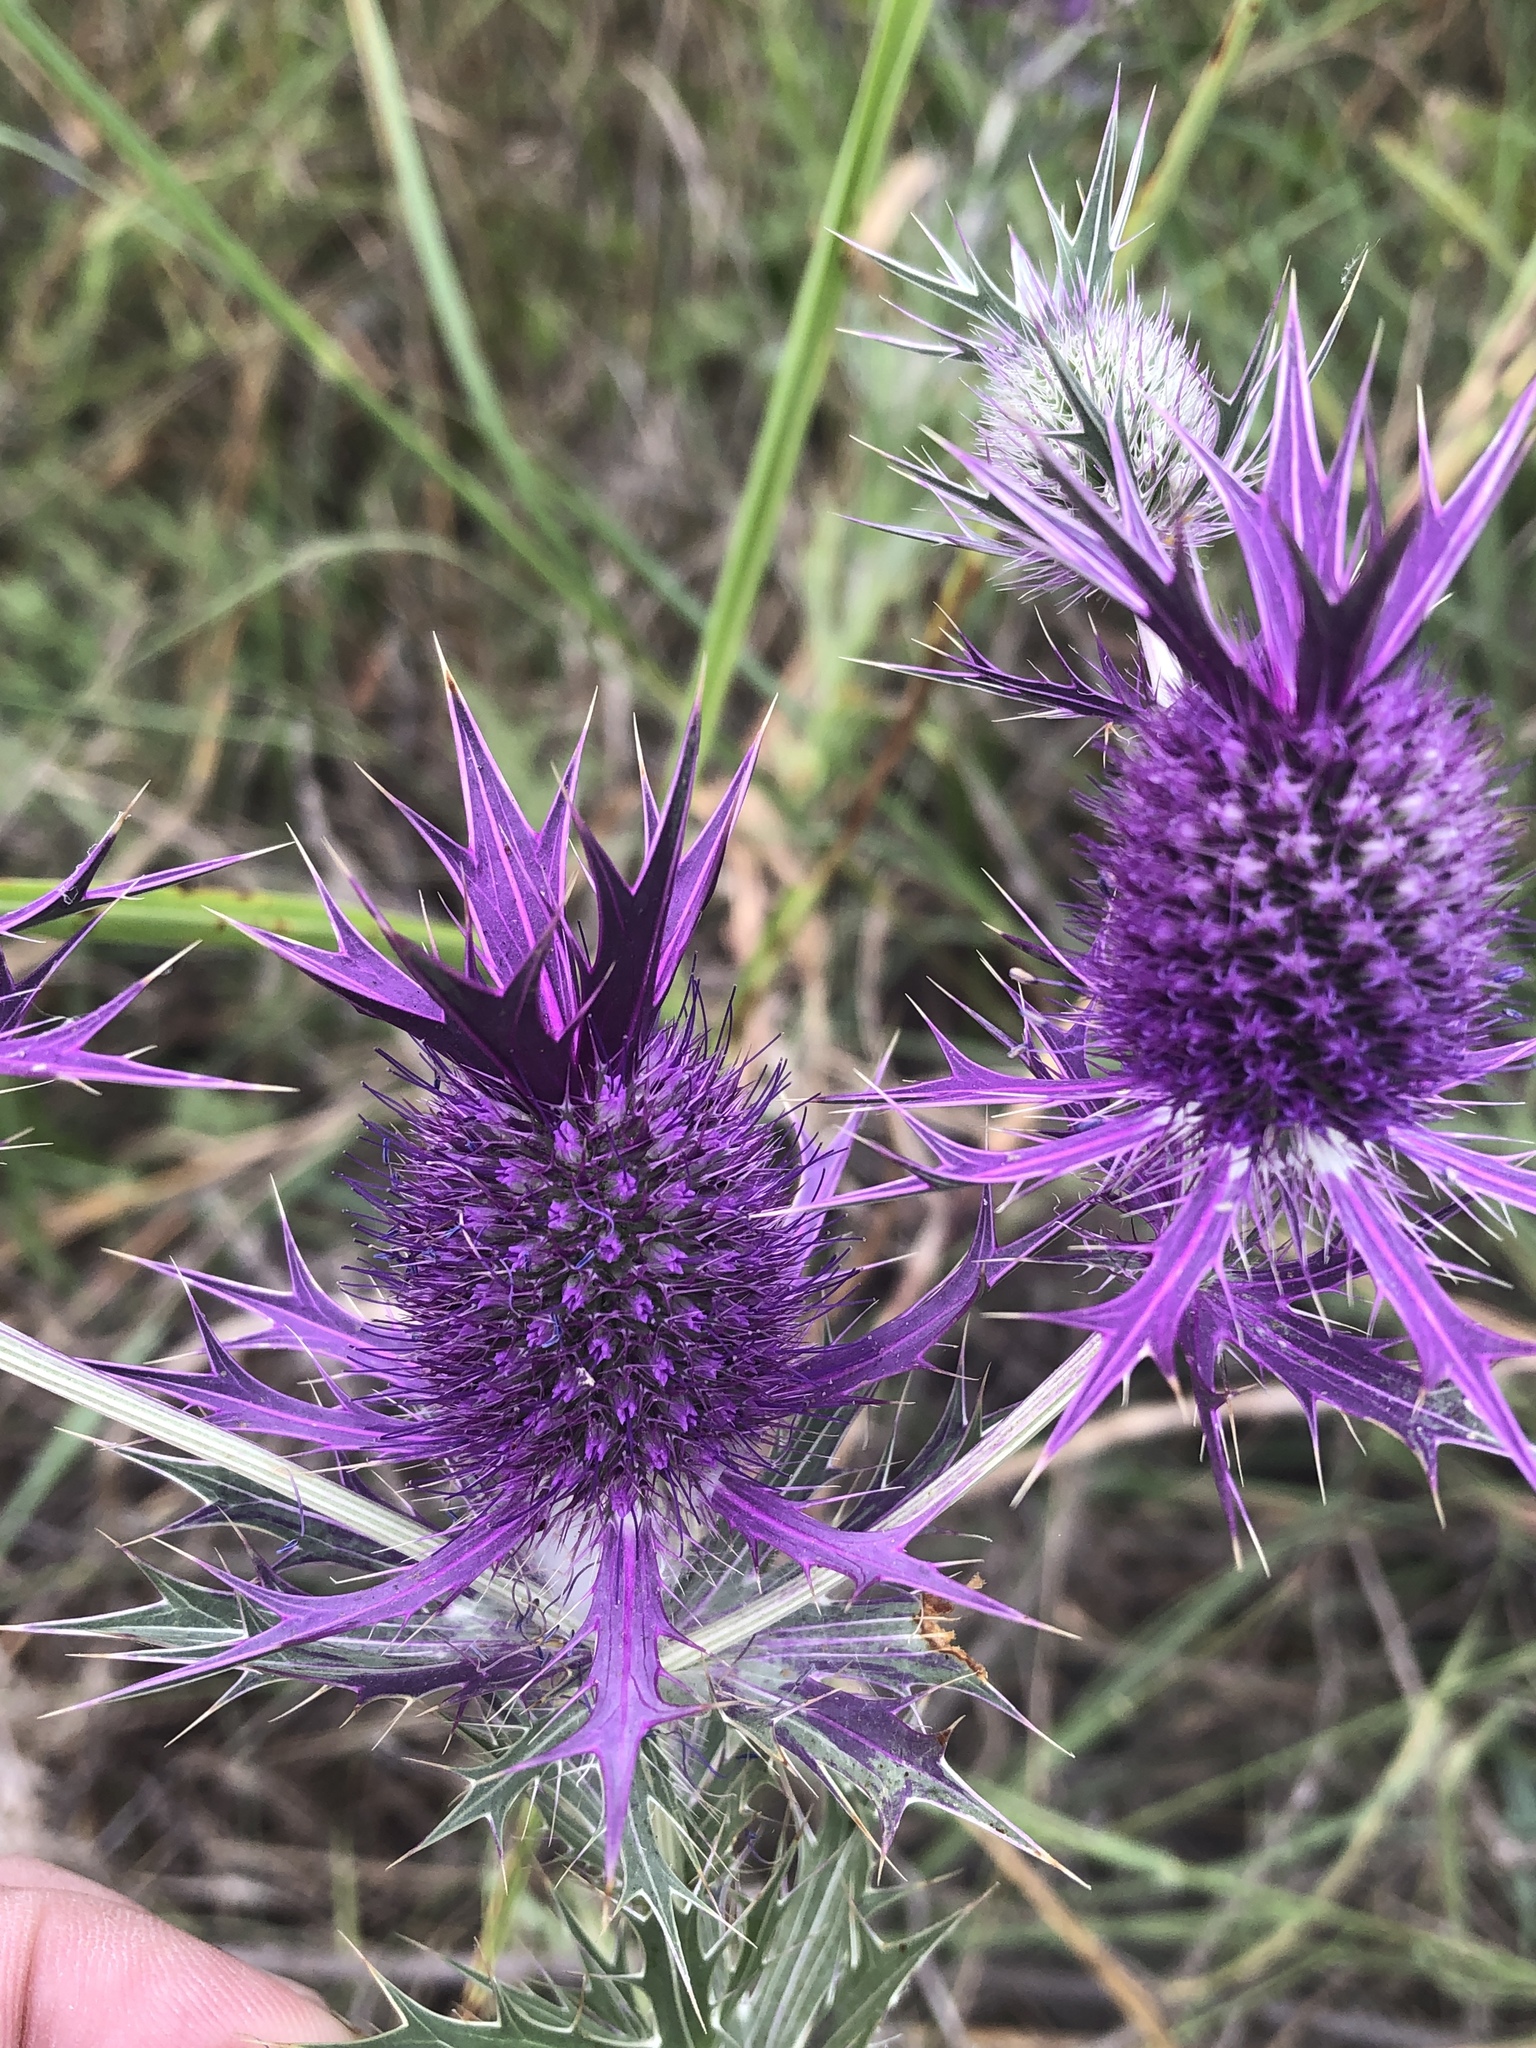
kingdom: Plantae
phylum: Tracheophyta
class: Magnoliopsida
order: Apiales
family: Apiaceae
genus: Eryngium
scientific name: Eryngium leavenworthii
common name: Leavenworth's eryngo
